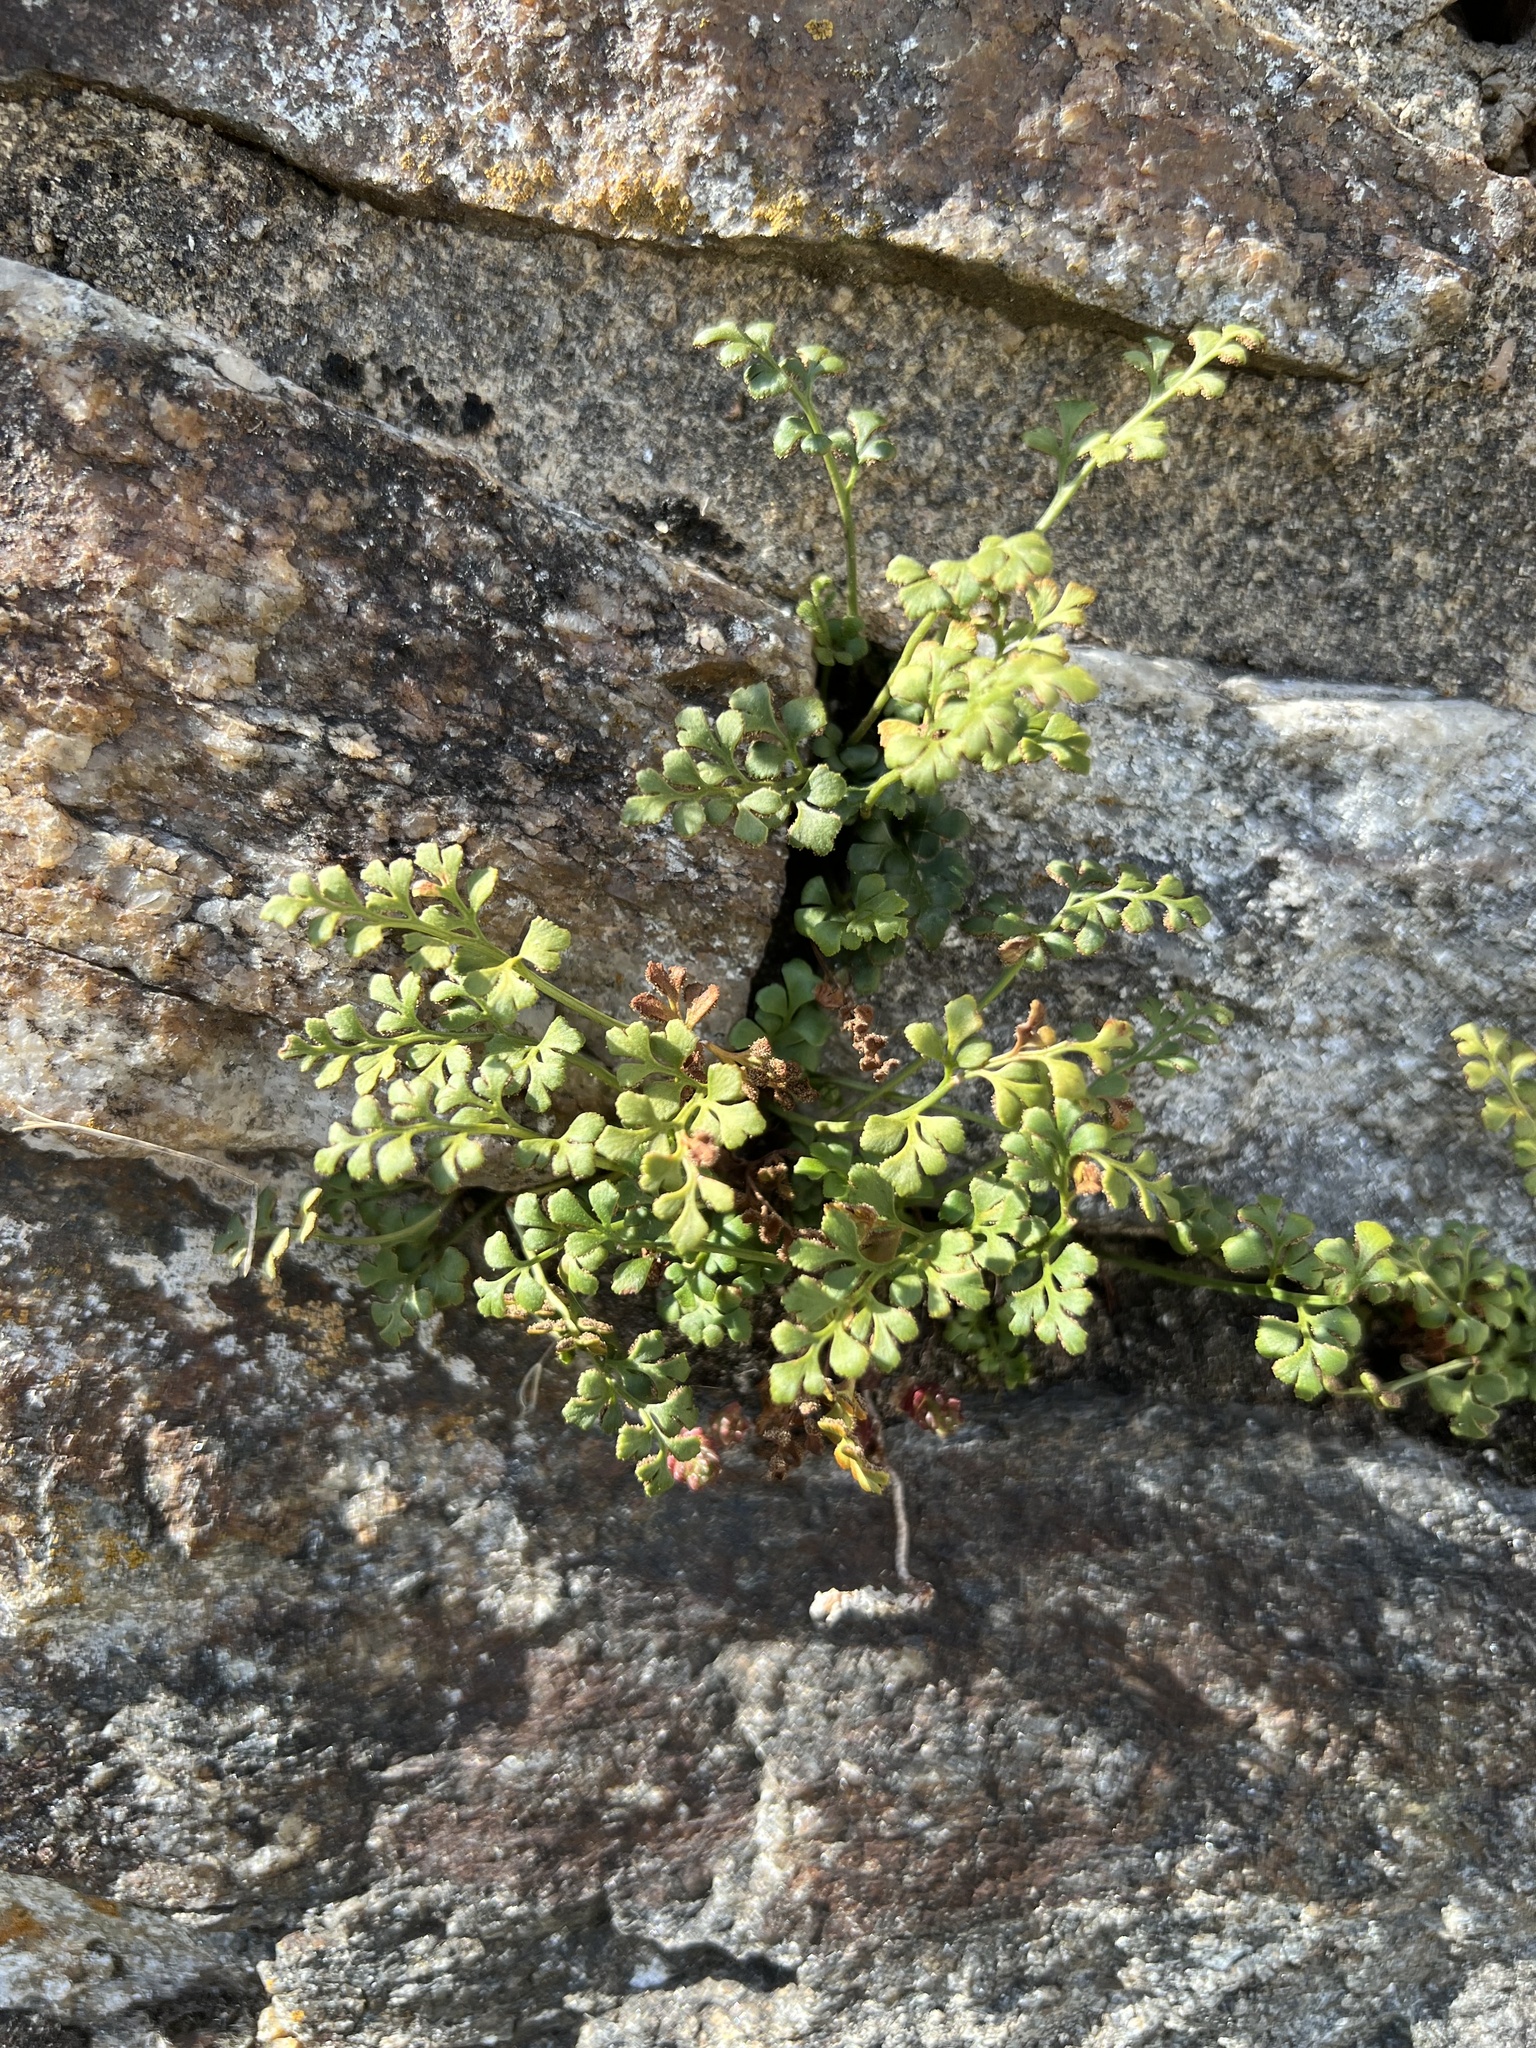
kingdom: Plantae
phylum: Tracheophyta
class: Polypodiopsida
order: Polypodiales
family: Aspleniaceae
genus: Asplenium
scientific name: Asplenium ruta-muraria
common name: Wall-rue
